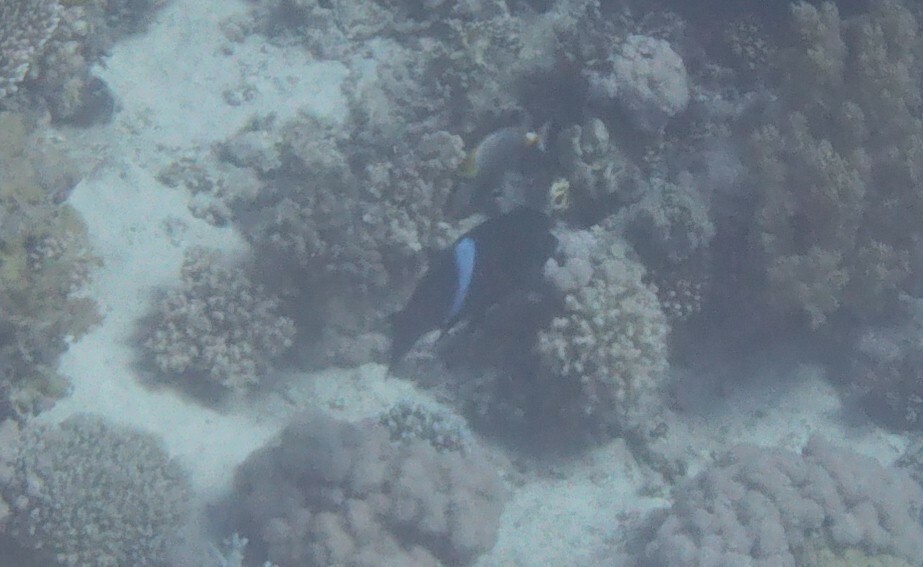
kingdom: Animalia
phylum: Chordata
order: Perciformes
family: Labridae
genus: Coris
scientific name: Coris aygula
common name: Clown coris
